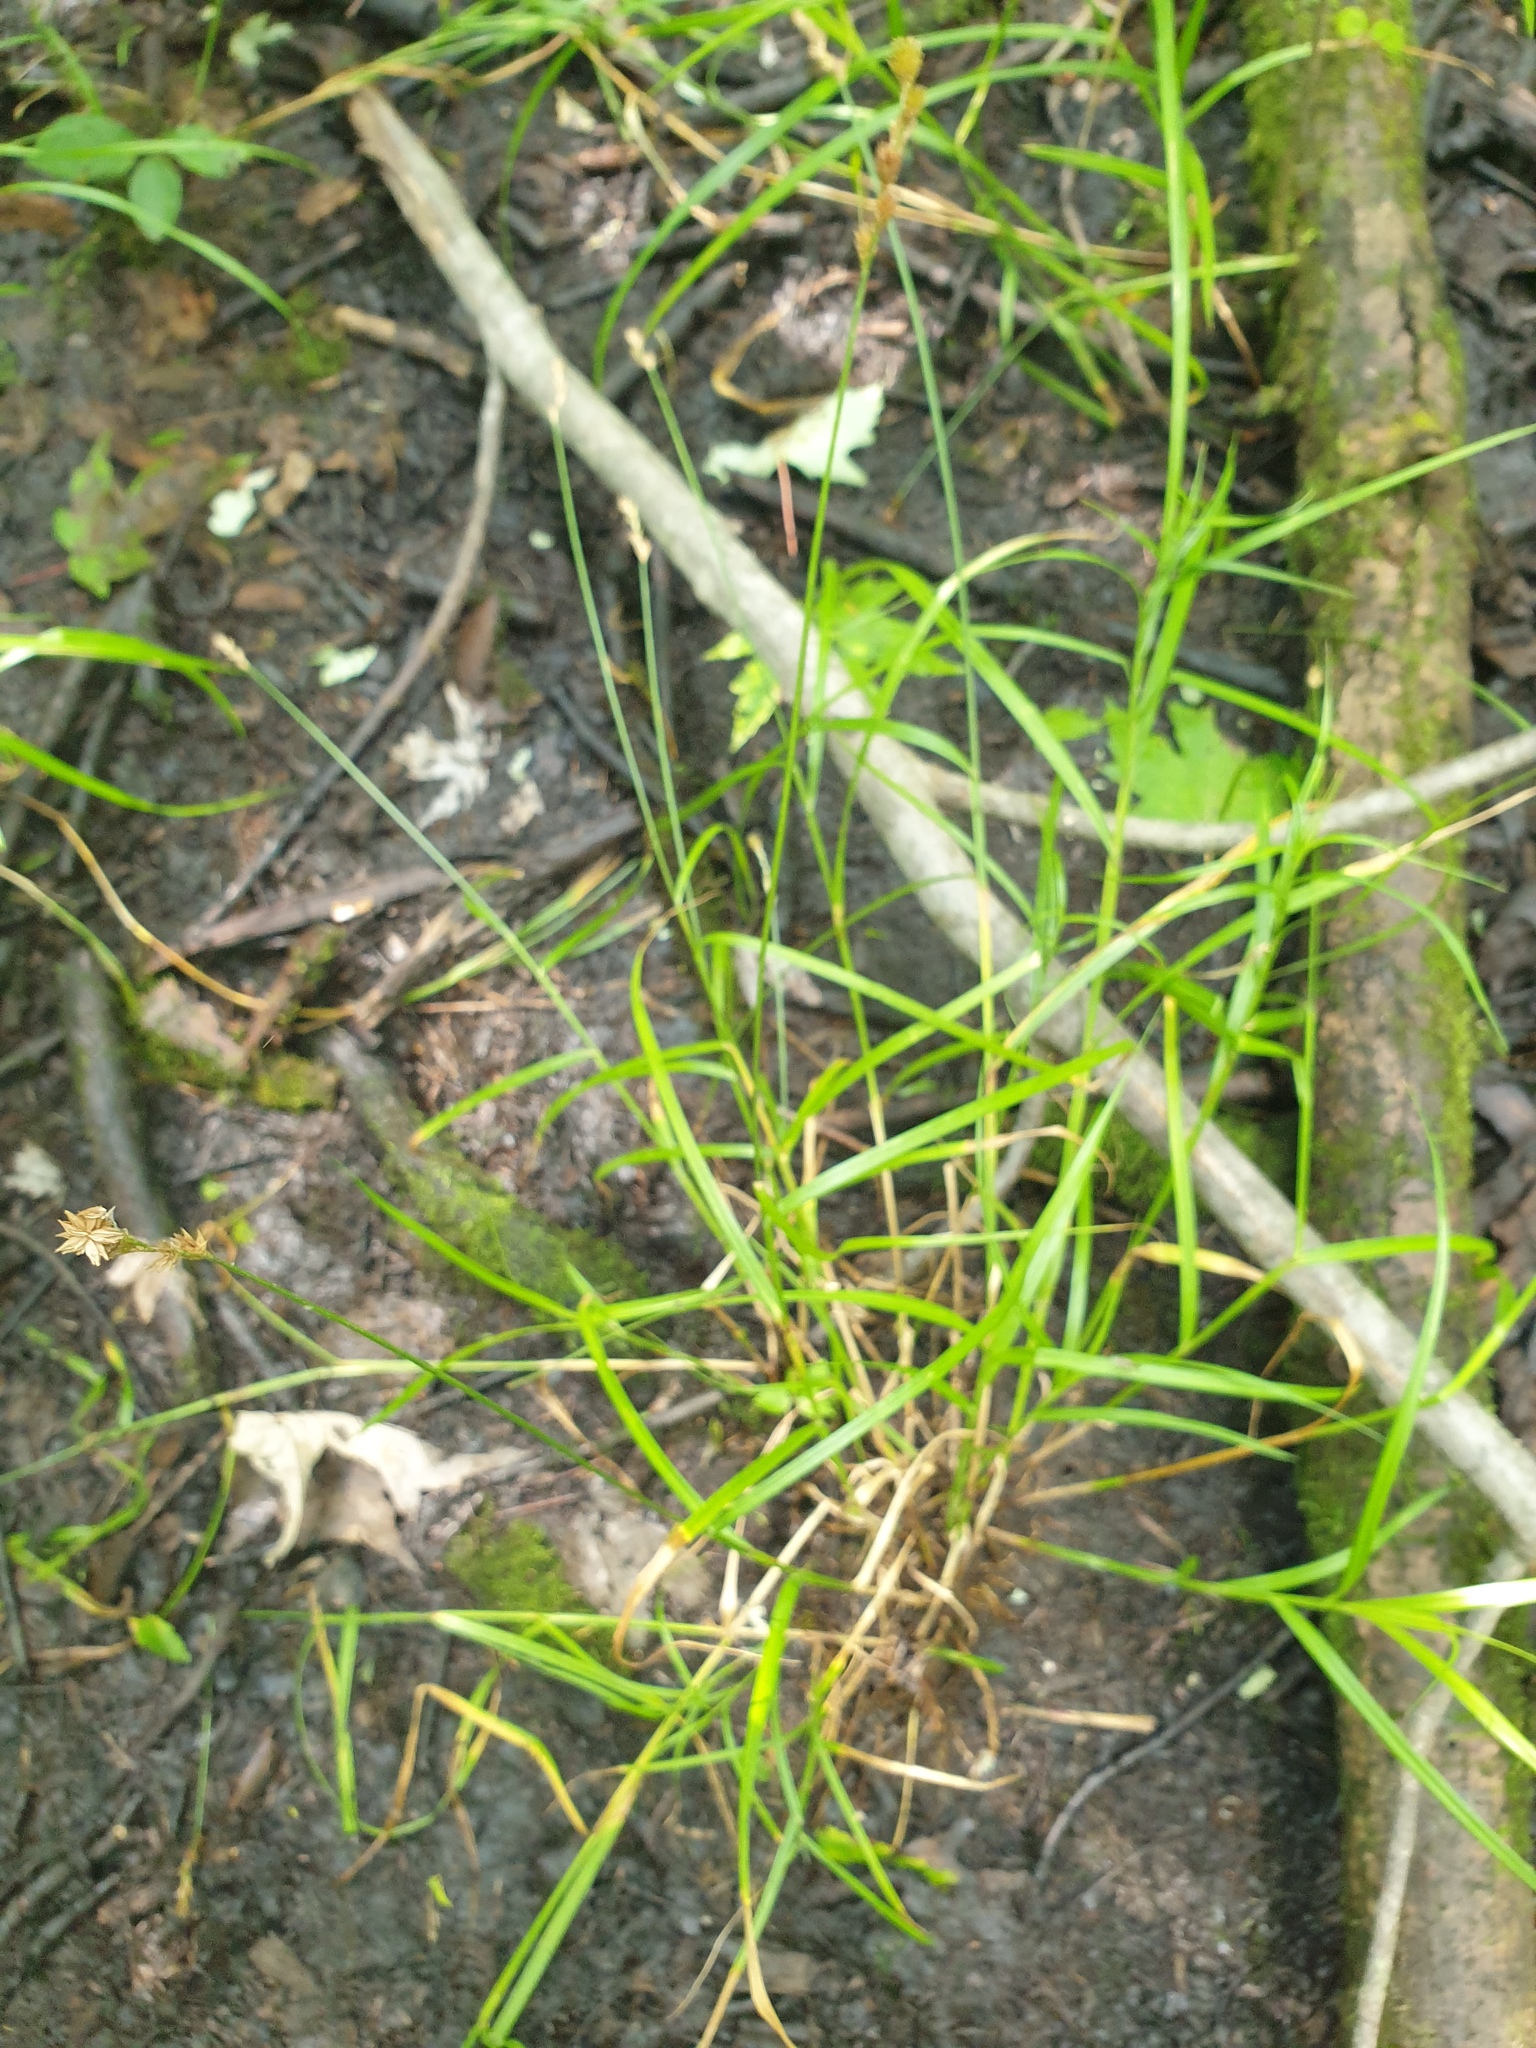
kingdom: Plantae
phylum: Tracheophyta
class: Liliopsida
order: Poales
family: Cyperaceae
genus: Carex
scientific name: Carex tribuloides
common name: Blunt broom sedge
